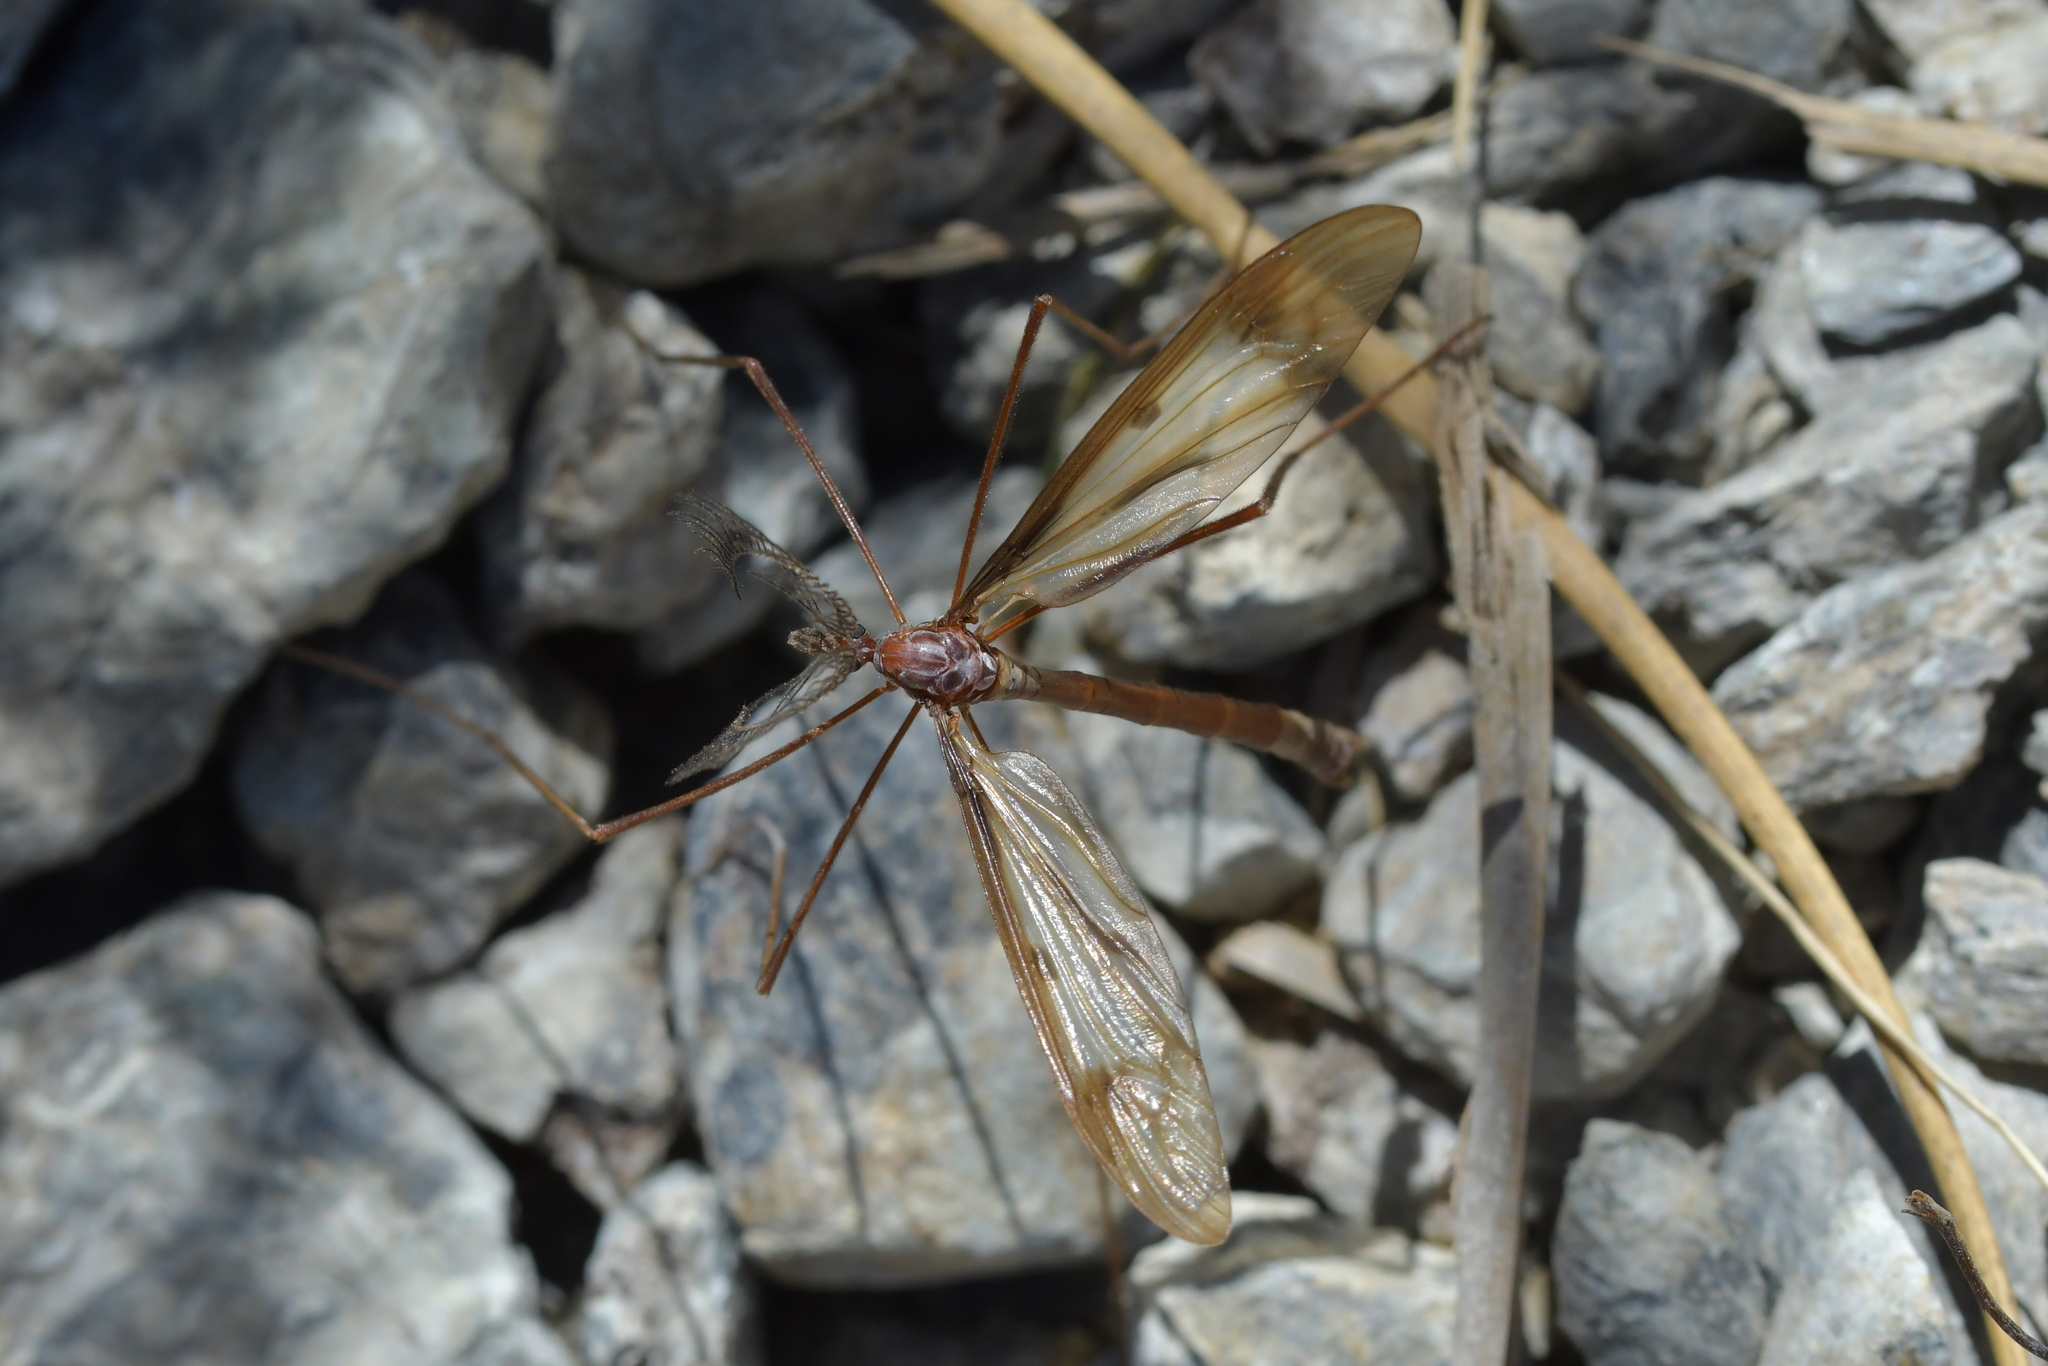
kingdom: Animalia
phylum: Arthropoda
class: Insecta
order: Diptera
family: Limoniidae
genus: Gynoplistia
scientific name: Gynoplistia paradisea
